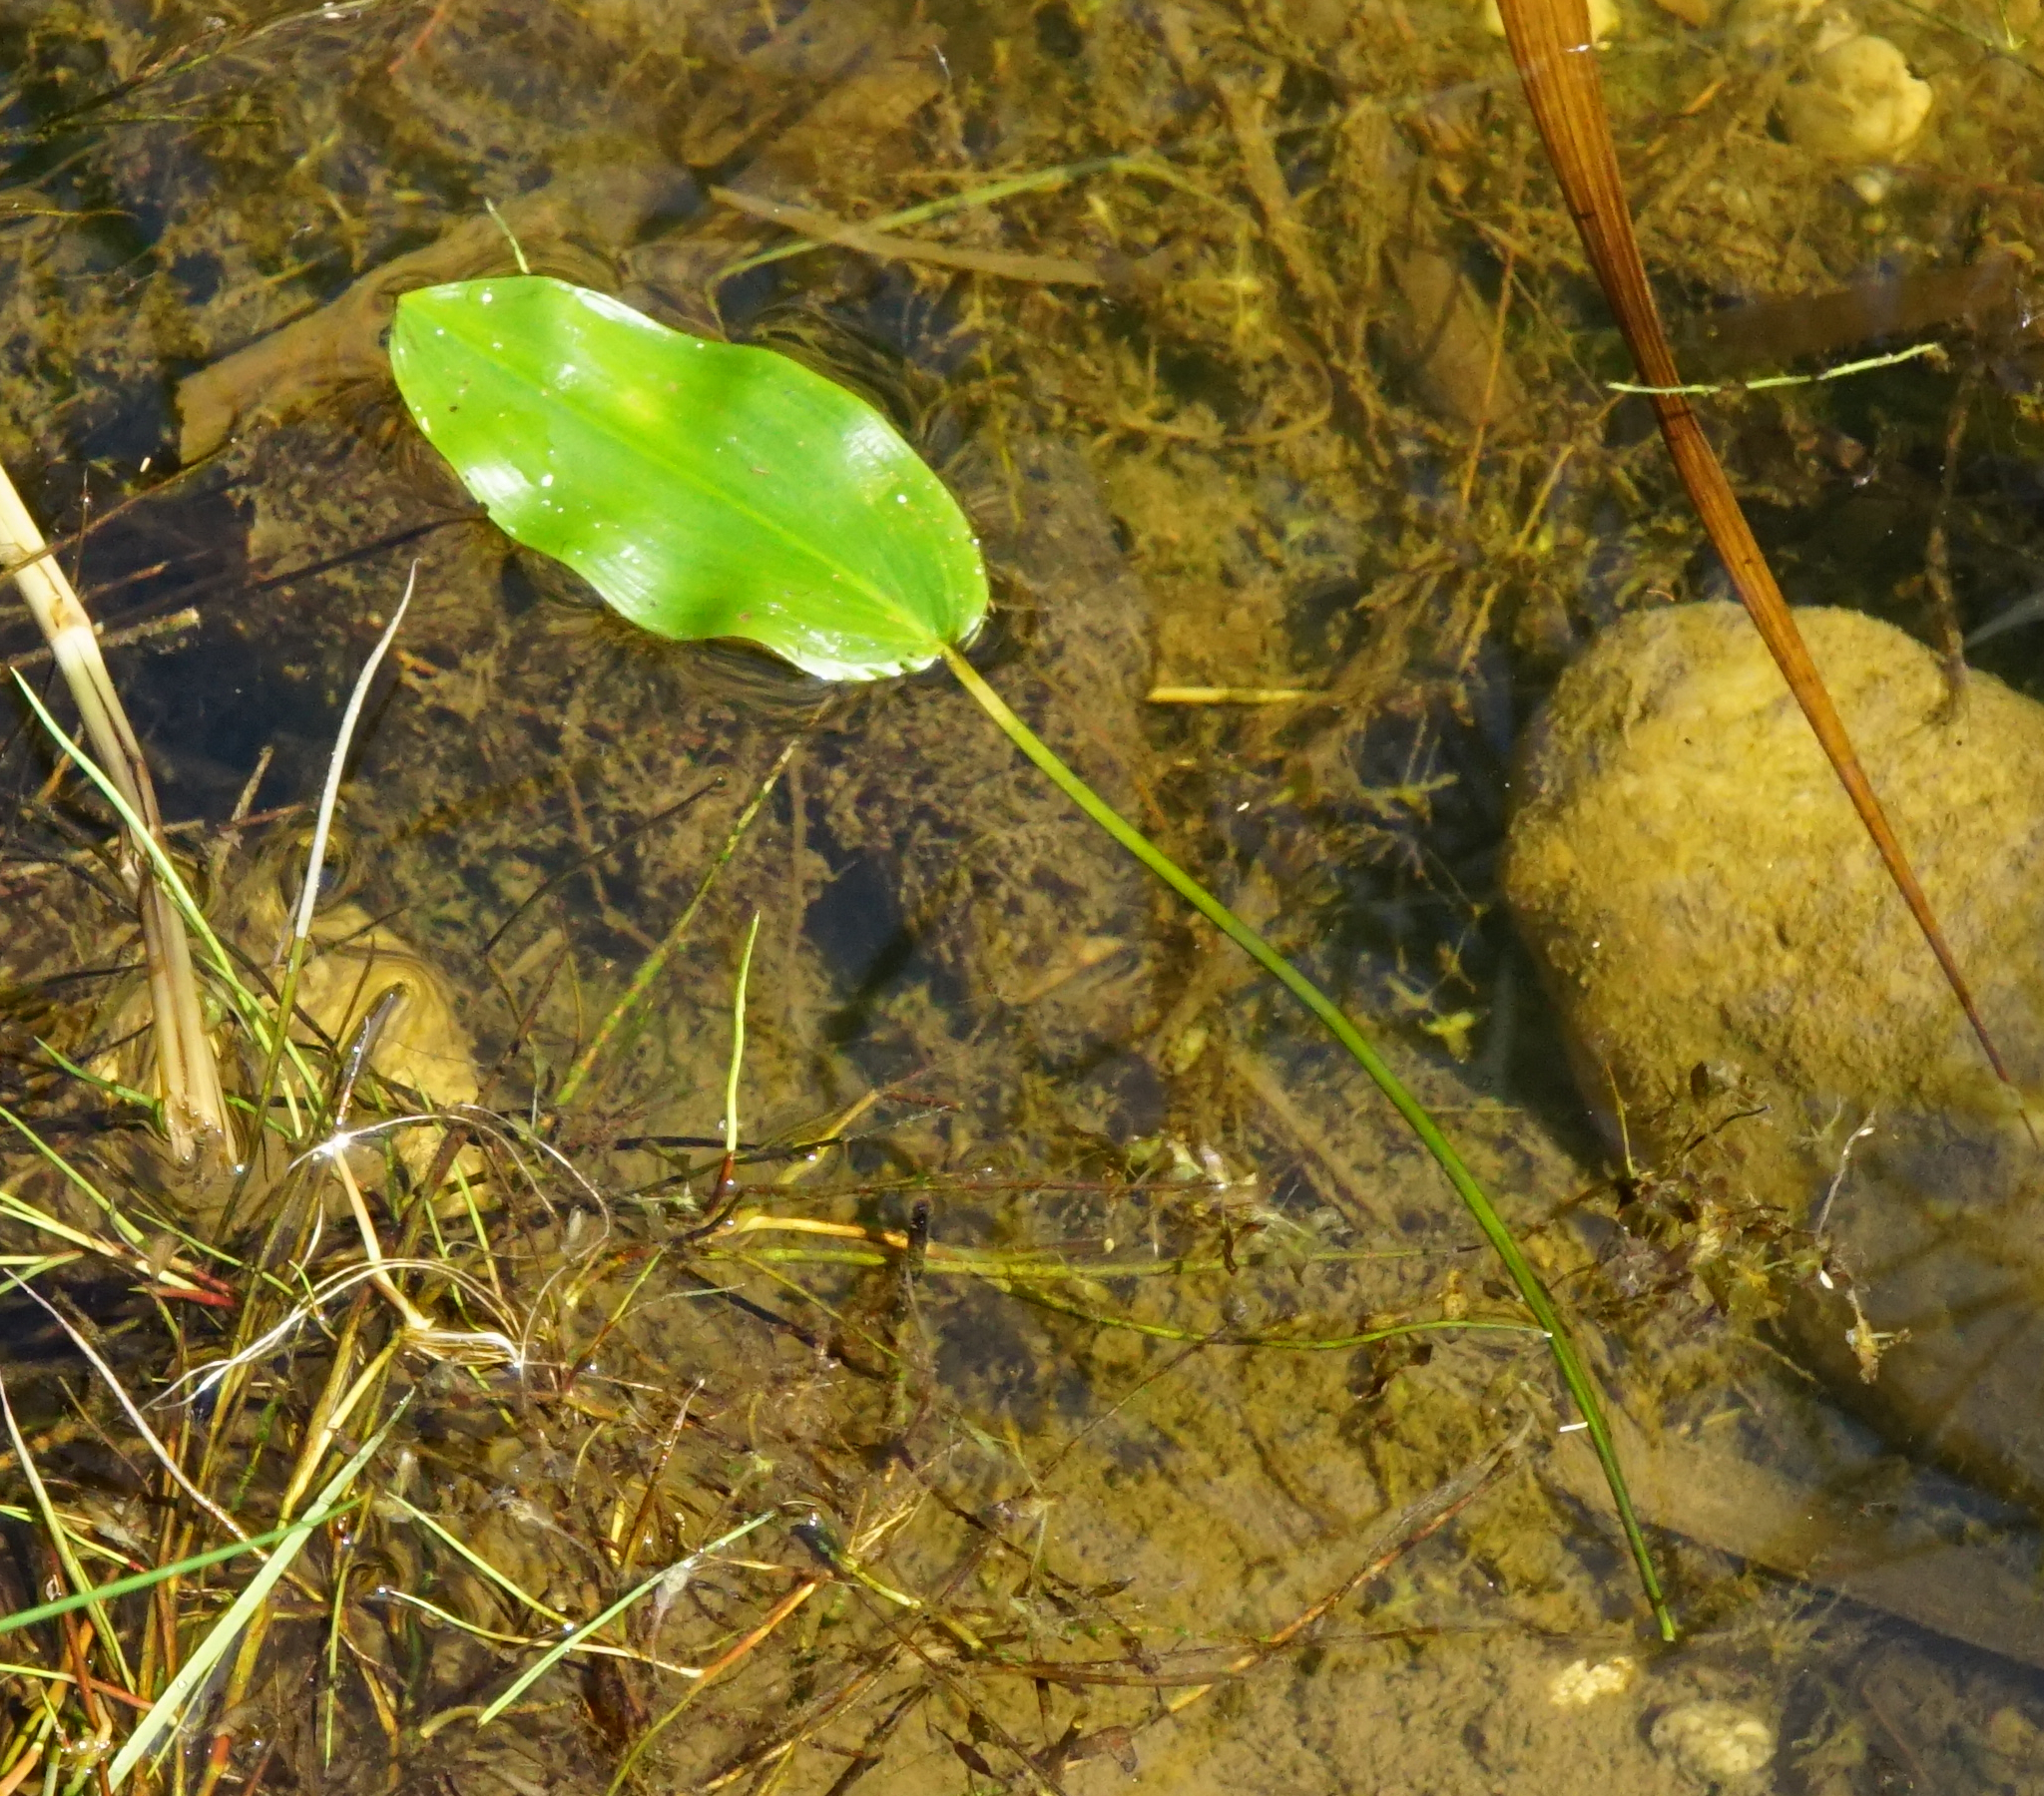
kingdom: Plantae
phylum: Tracheophyta
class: Liliopsida
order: Alismatales
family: Potamogetonaceae
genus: Potamogeton
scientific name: Potamogeton natans
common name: Broad-leaved pondweed
